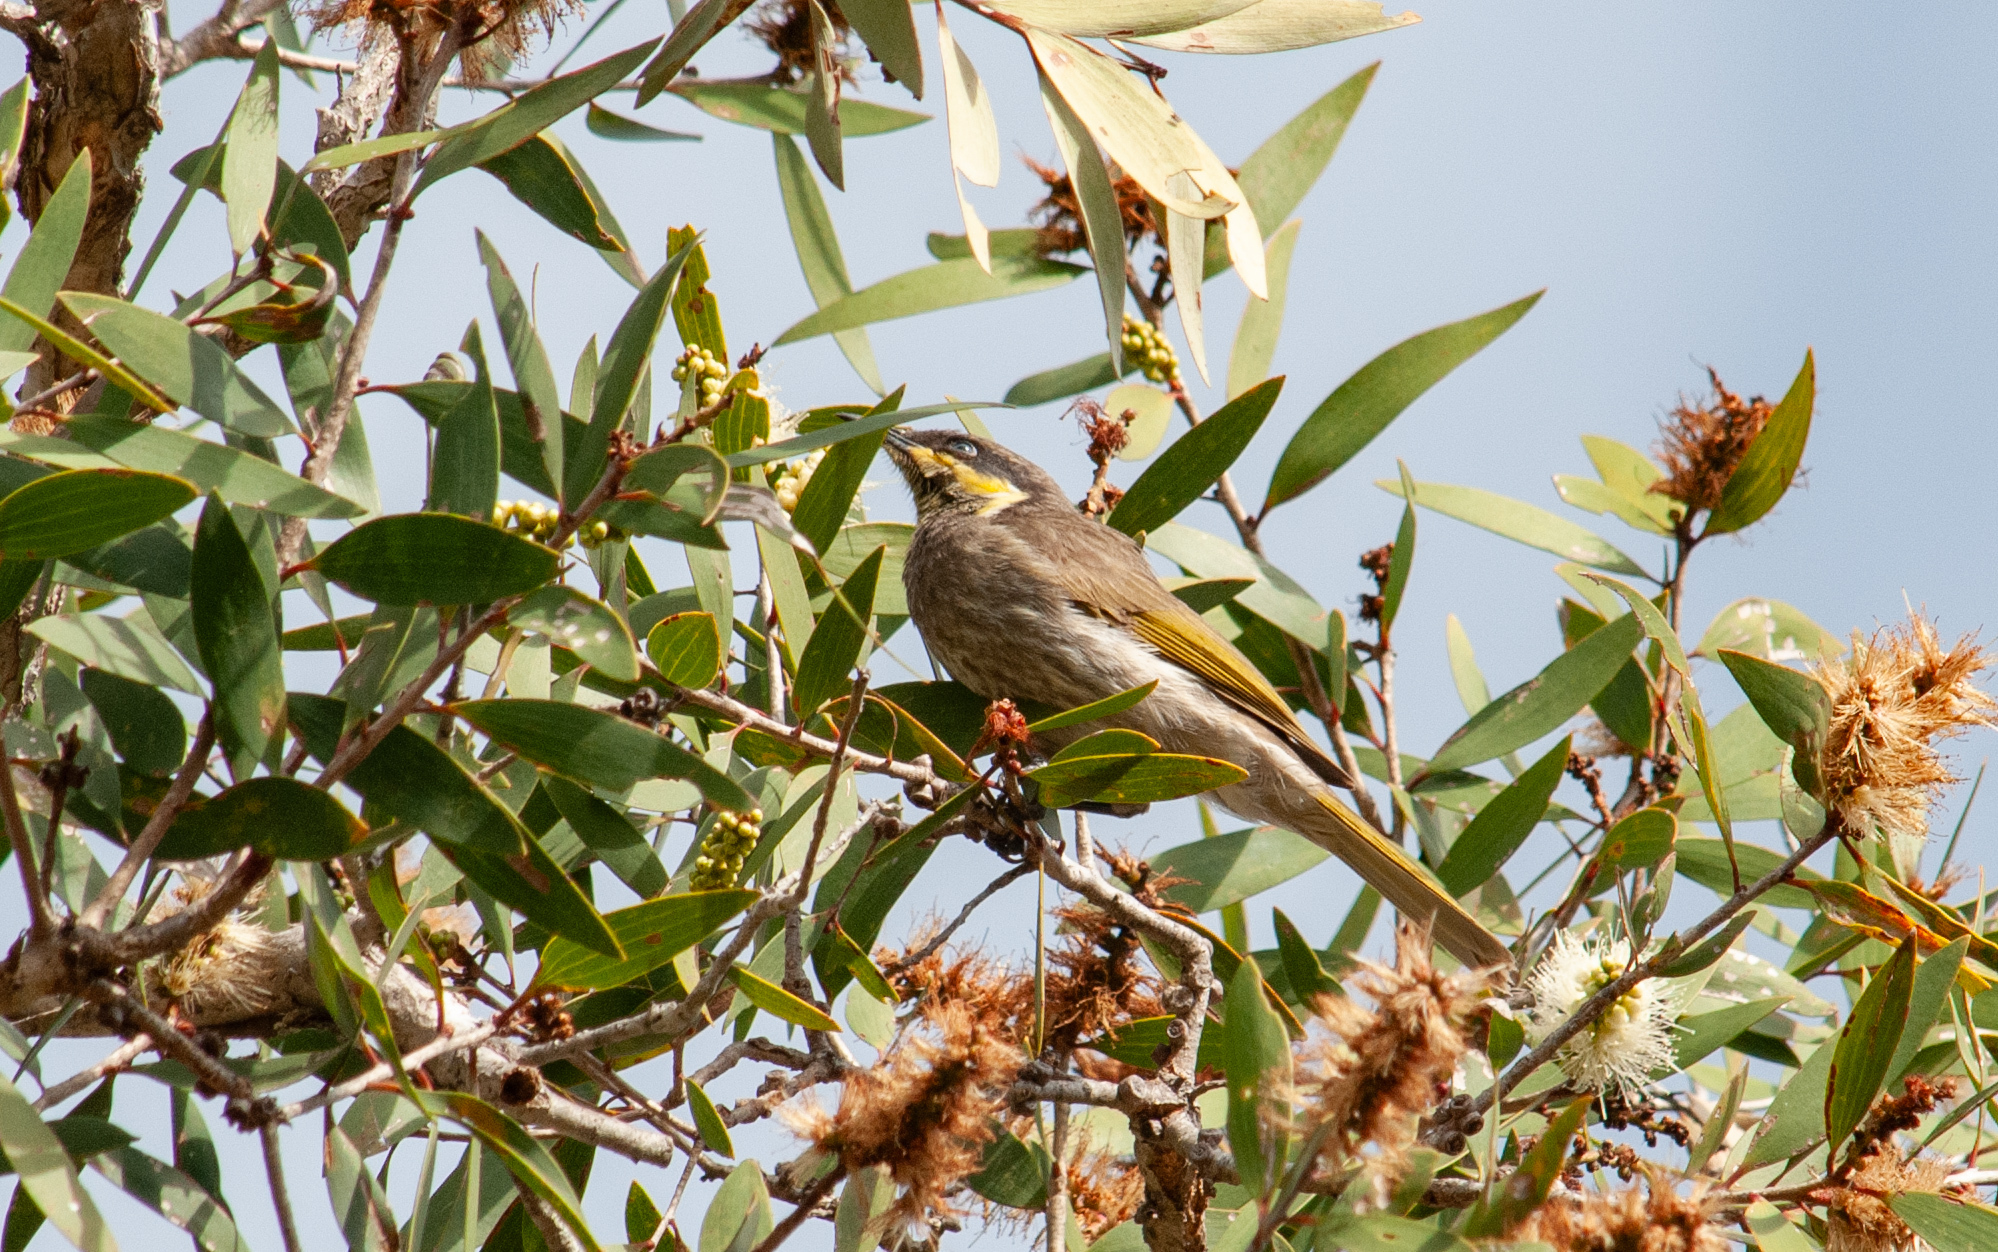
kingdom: Animalia
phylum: Chordata
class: Aves
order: Passeriformes
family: Meliphagidae
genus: Gavicalis
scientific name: Gavicalis fasciogularis
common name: Mangrove honeyeater
